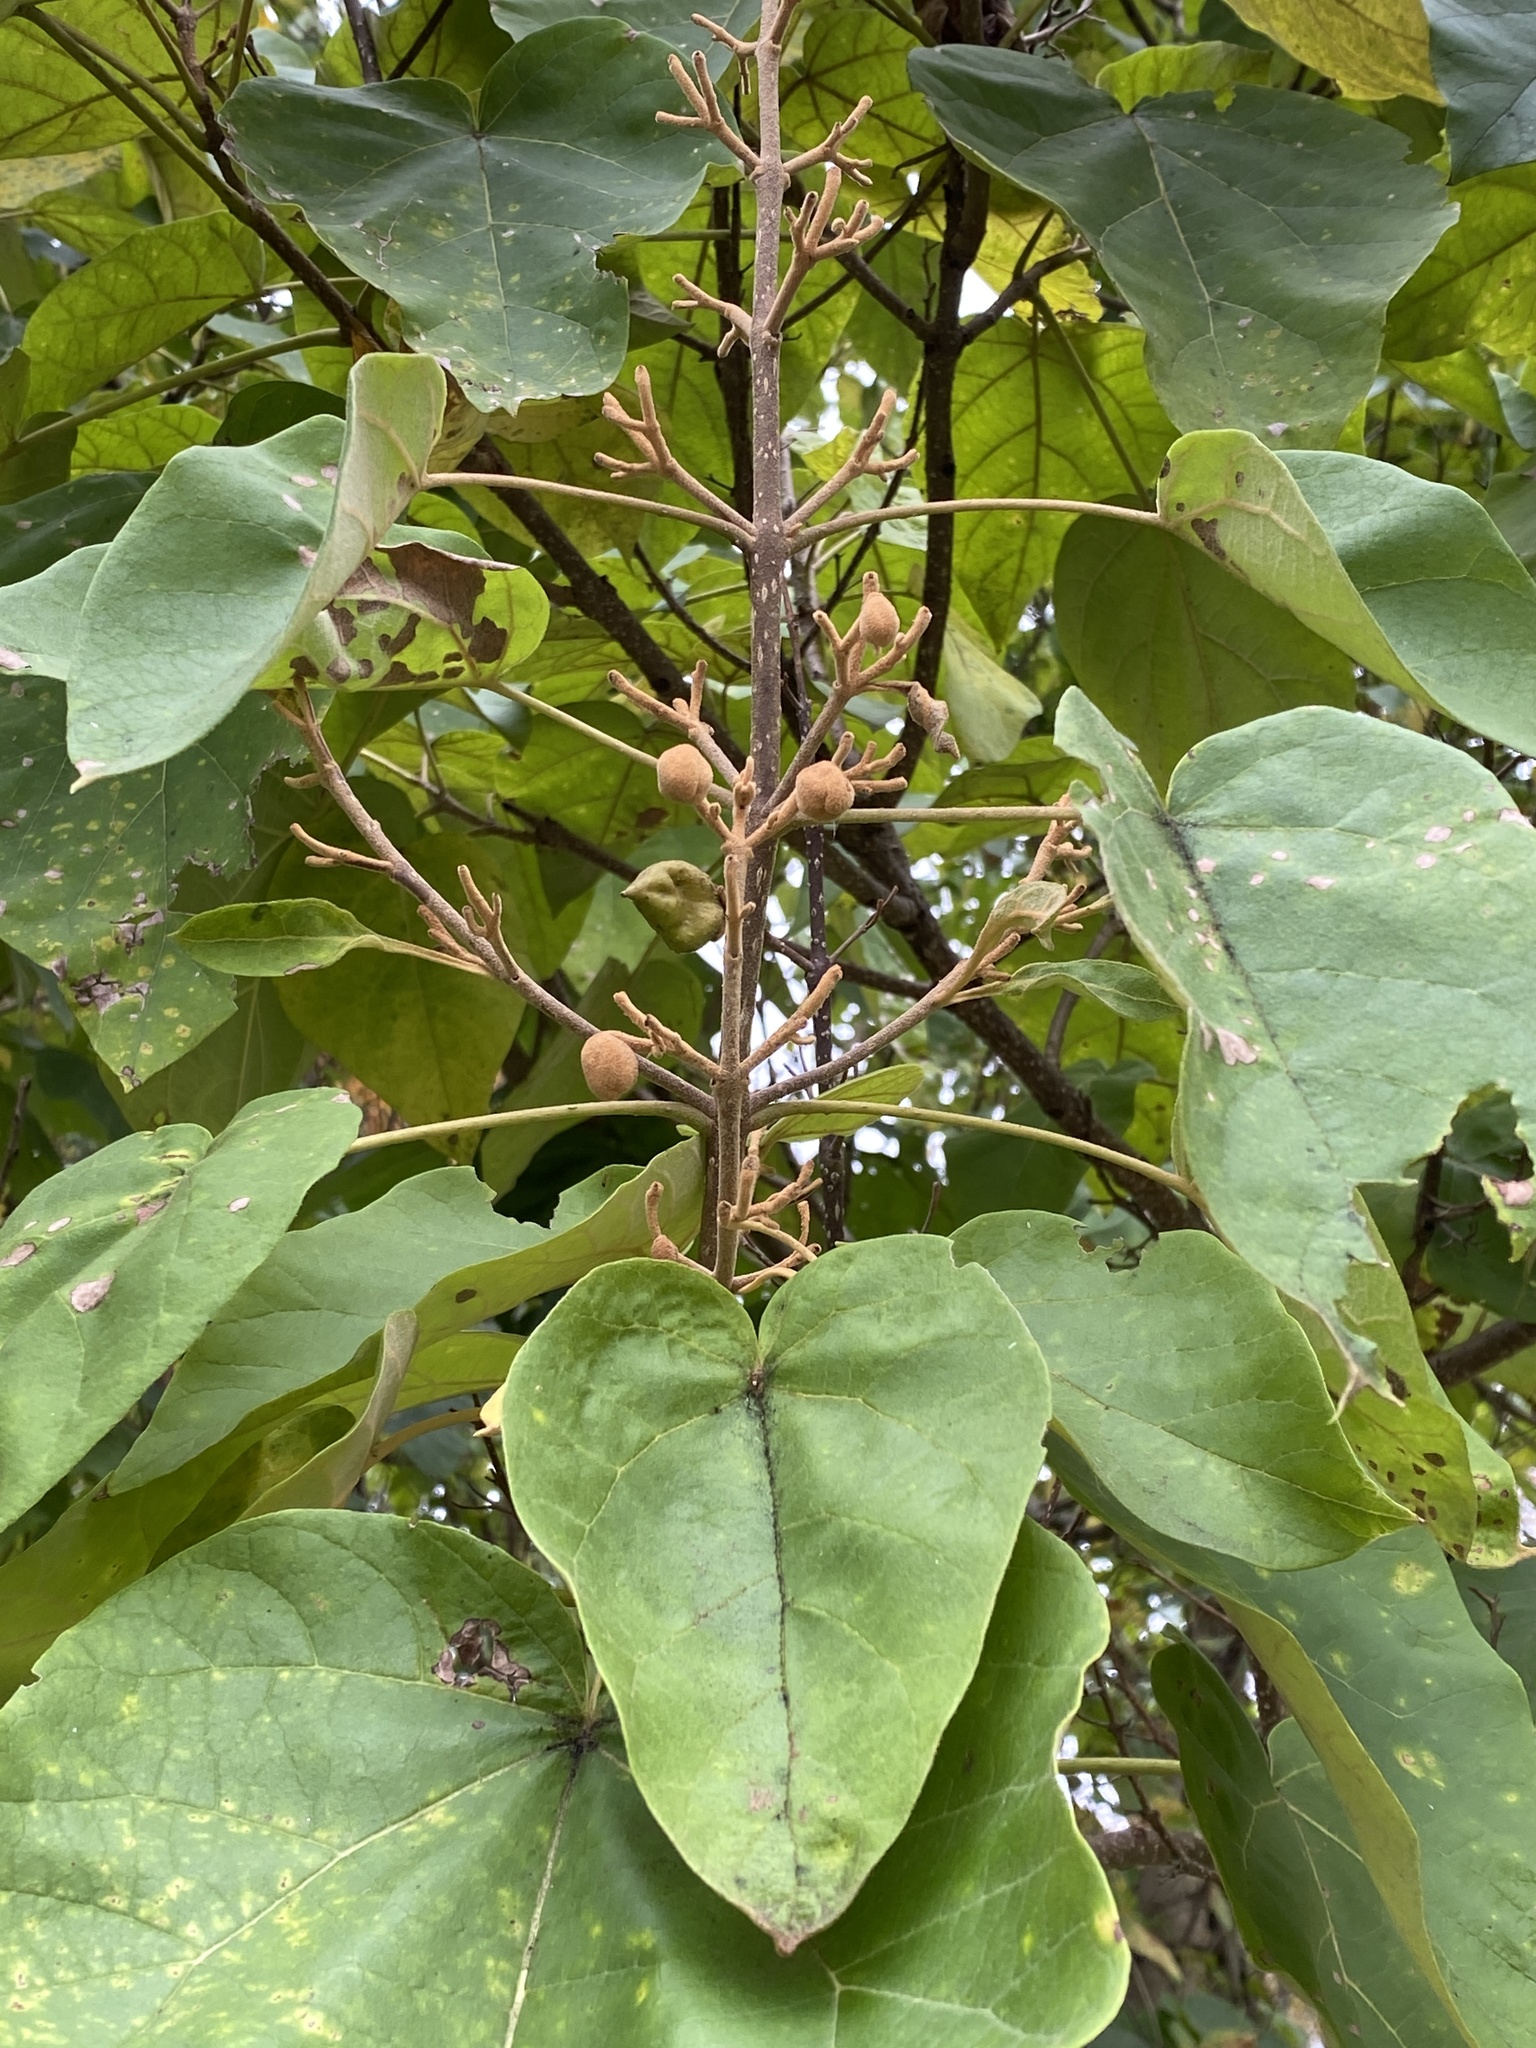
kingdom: Plantae
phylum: Tracheophyta
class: Magnoliopsida
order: Lamiales
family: Paulowniaceae
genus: Paulownia
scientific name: Paulownia tomentosa
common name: Foxglove-tree
